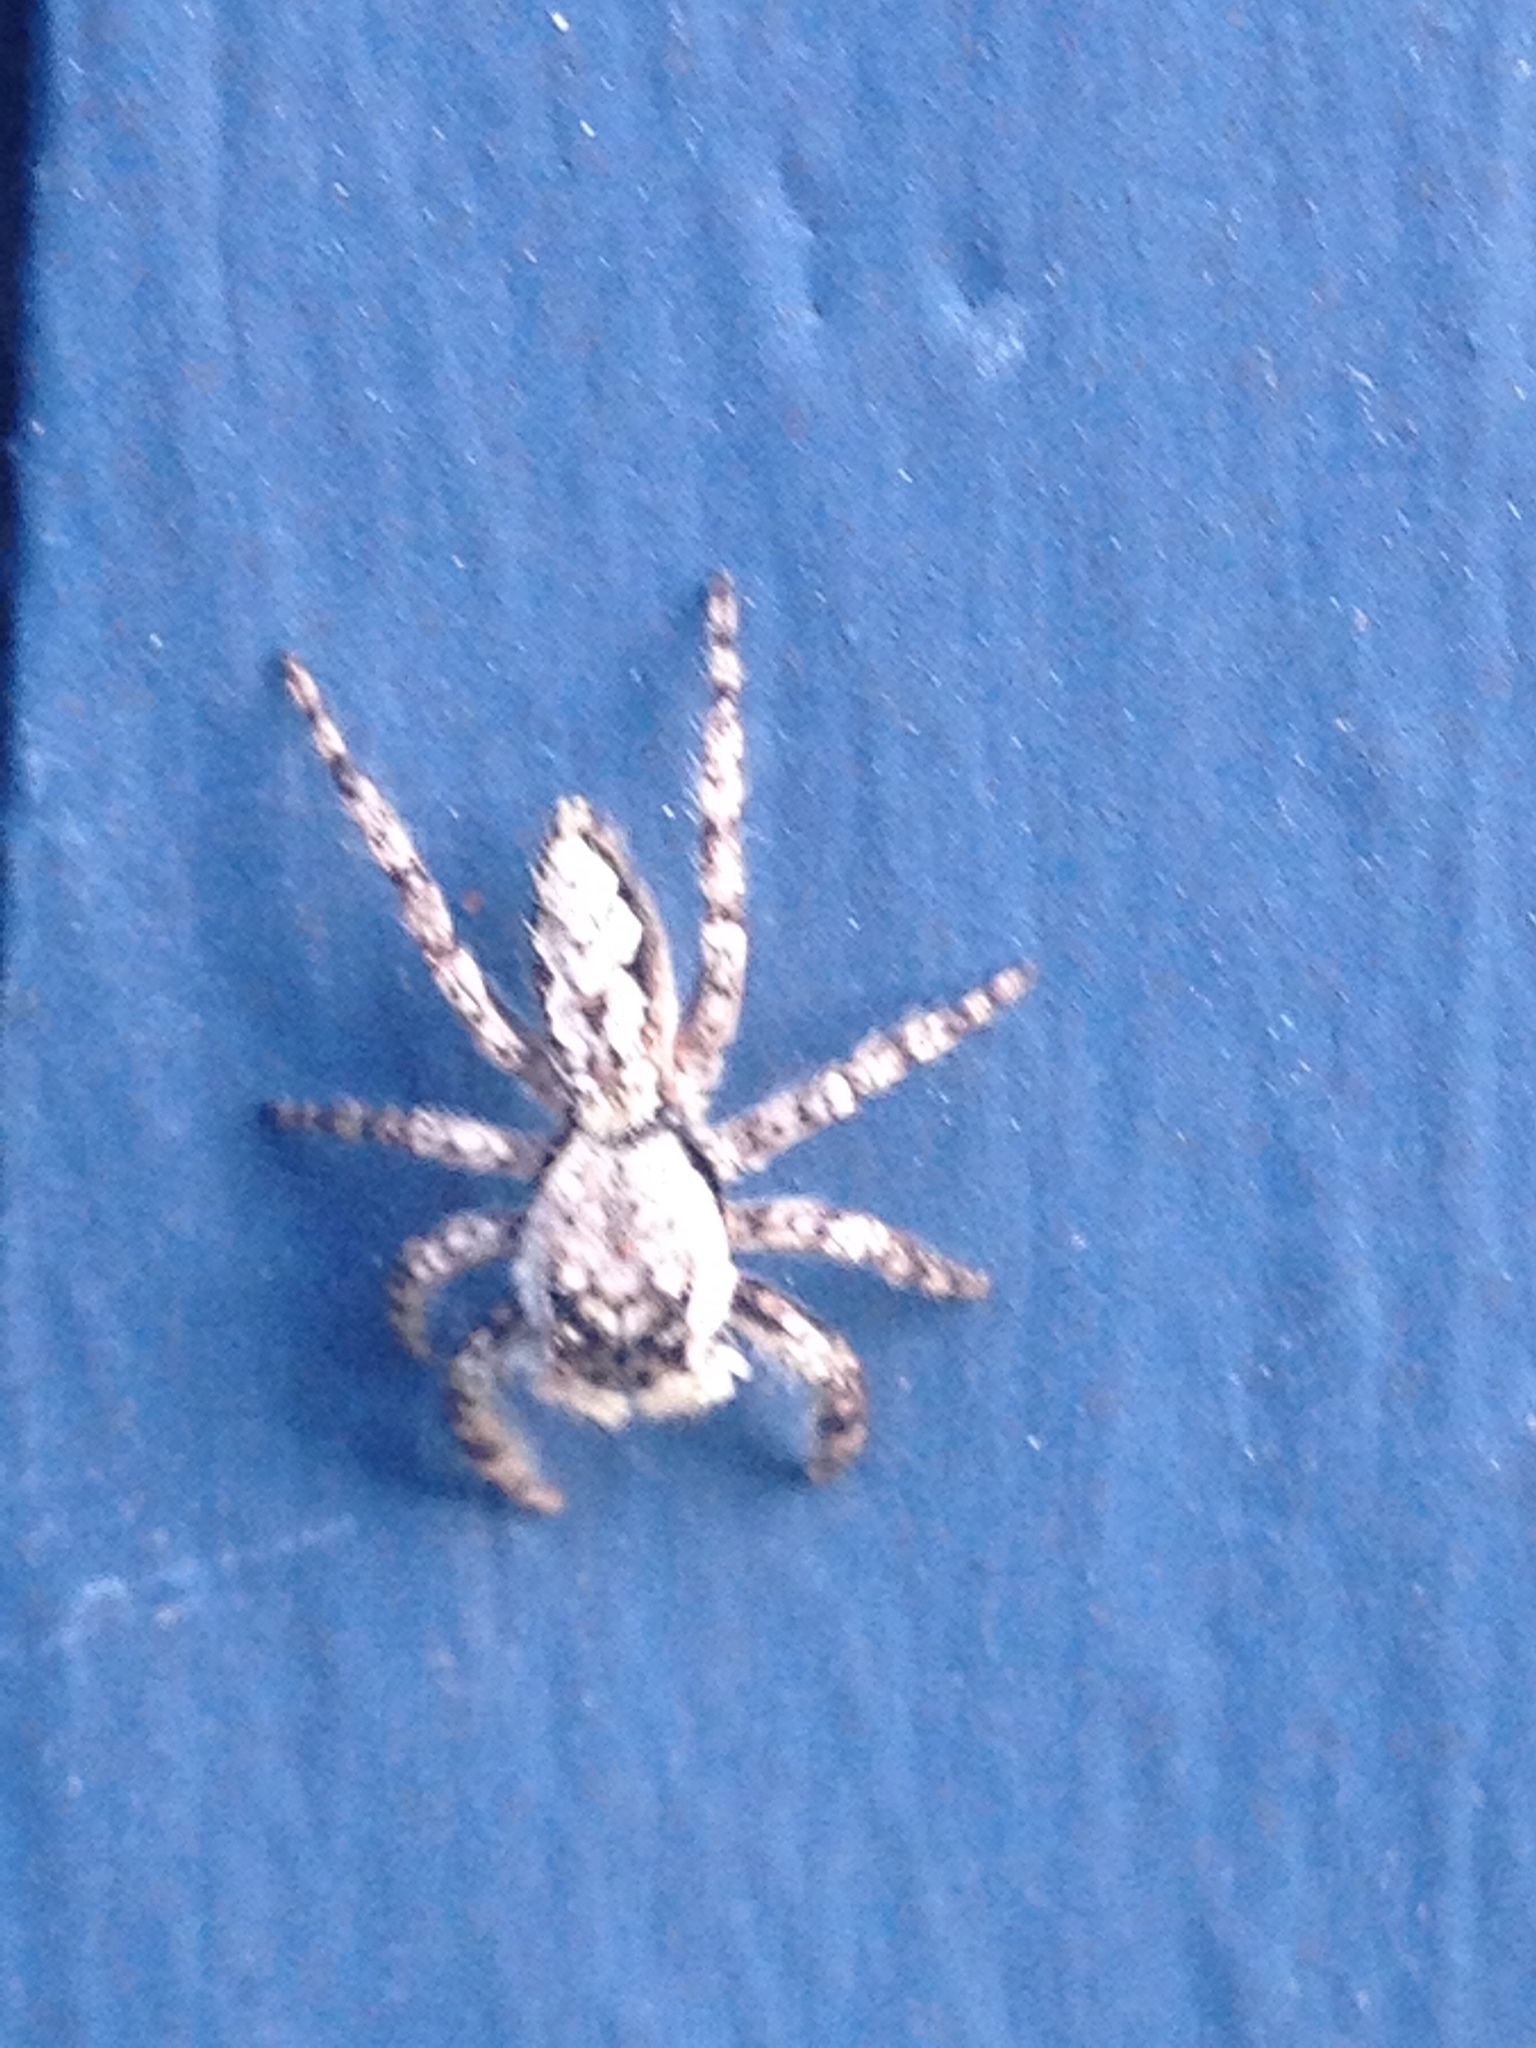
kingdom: Animalia
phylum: Arthropoda
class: Arachnida
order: Araneae
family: Salticidae
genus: Platycryptus
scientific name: Platycryptus undatus
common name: Tan jumping spider
